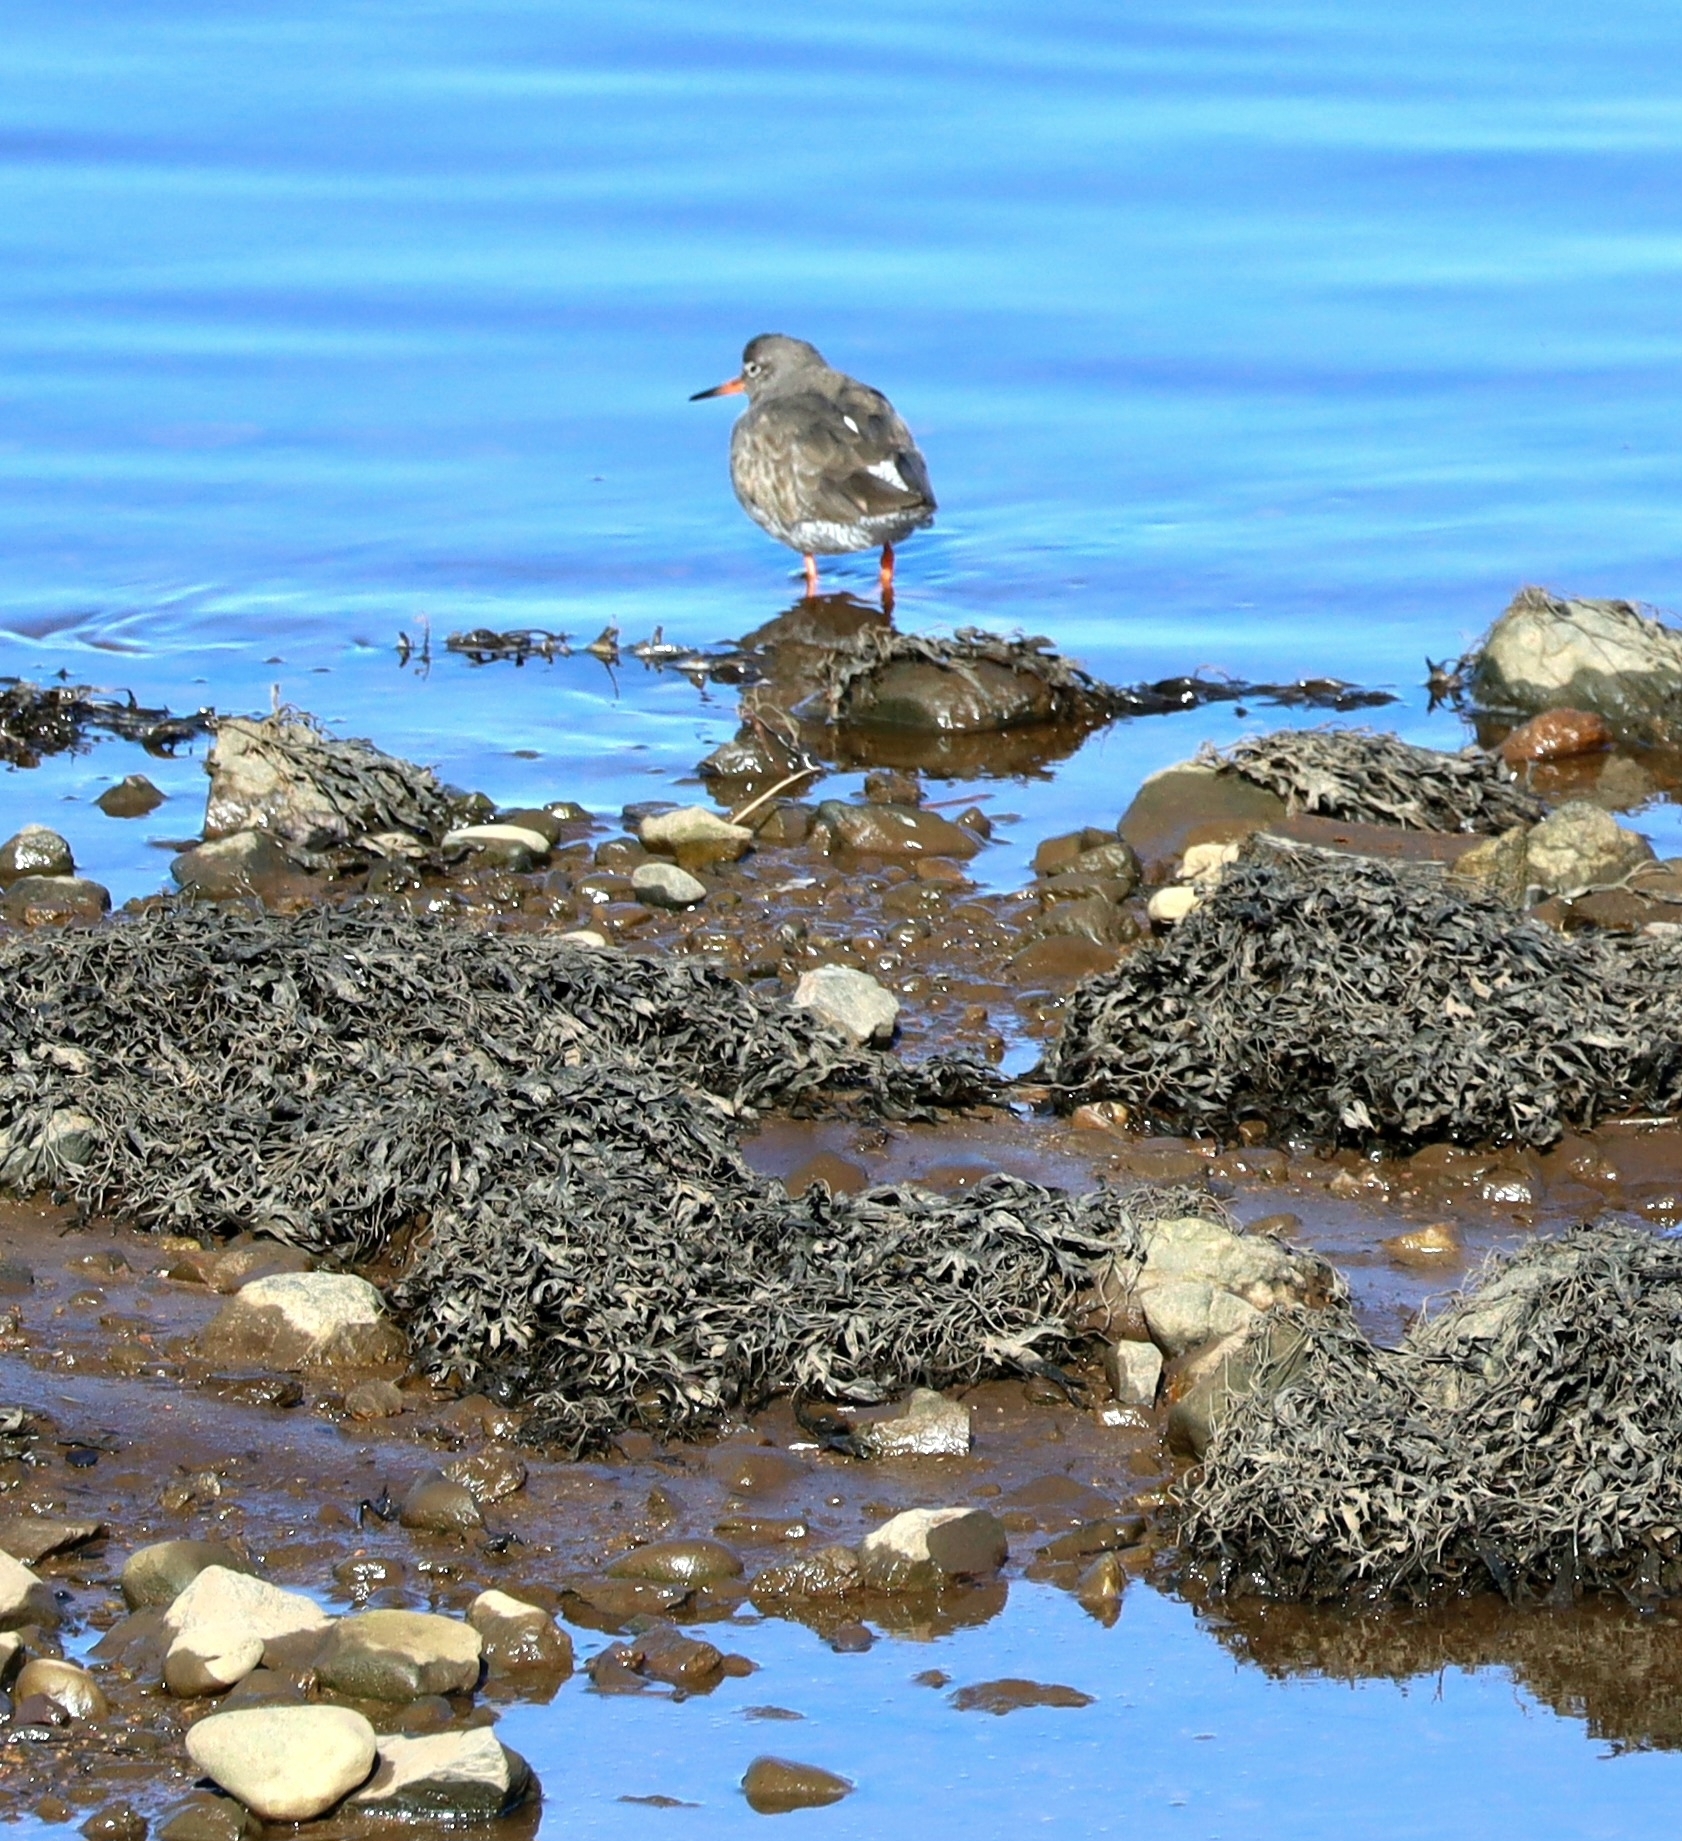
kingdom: Animalia
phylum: Chordata
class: Aves
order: Charadriiformes
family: Scolopacidae
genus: Tringa
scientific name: Tringa totanus
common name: Common redshank
